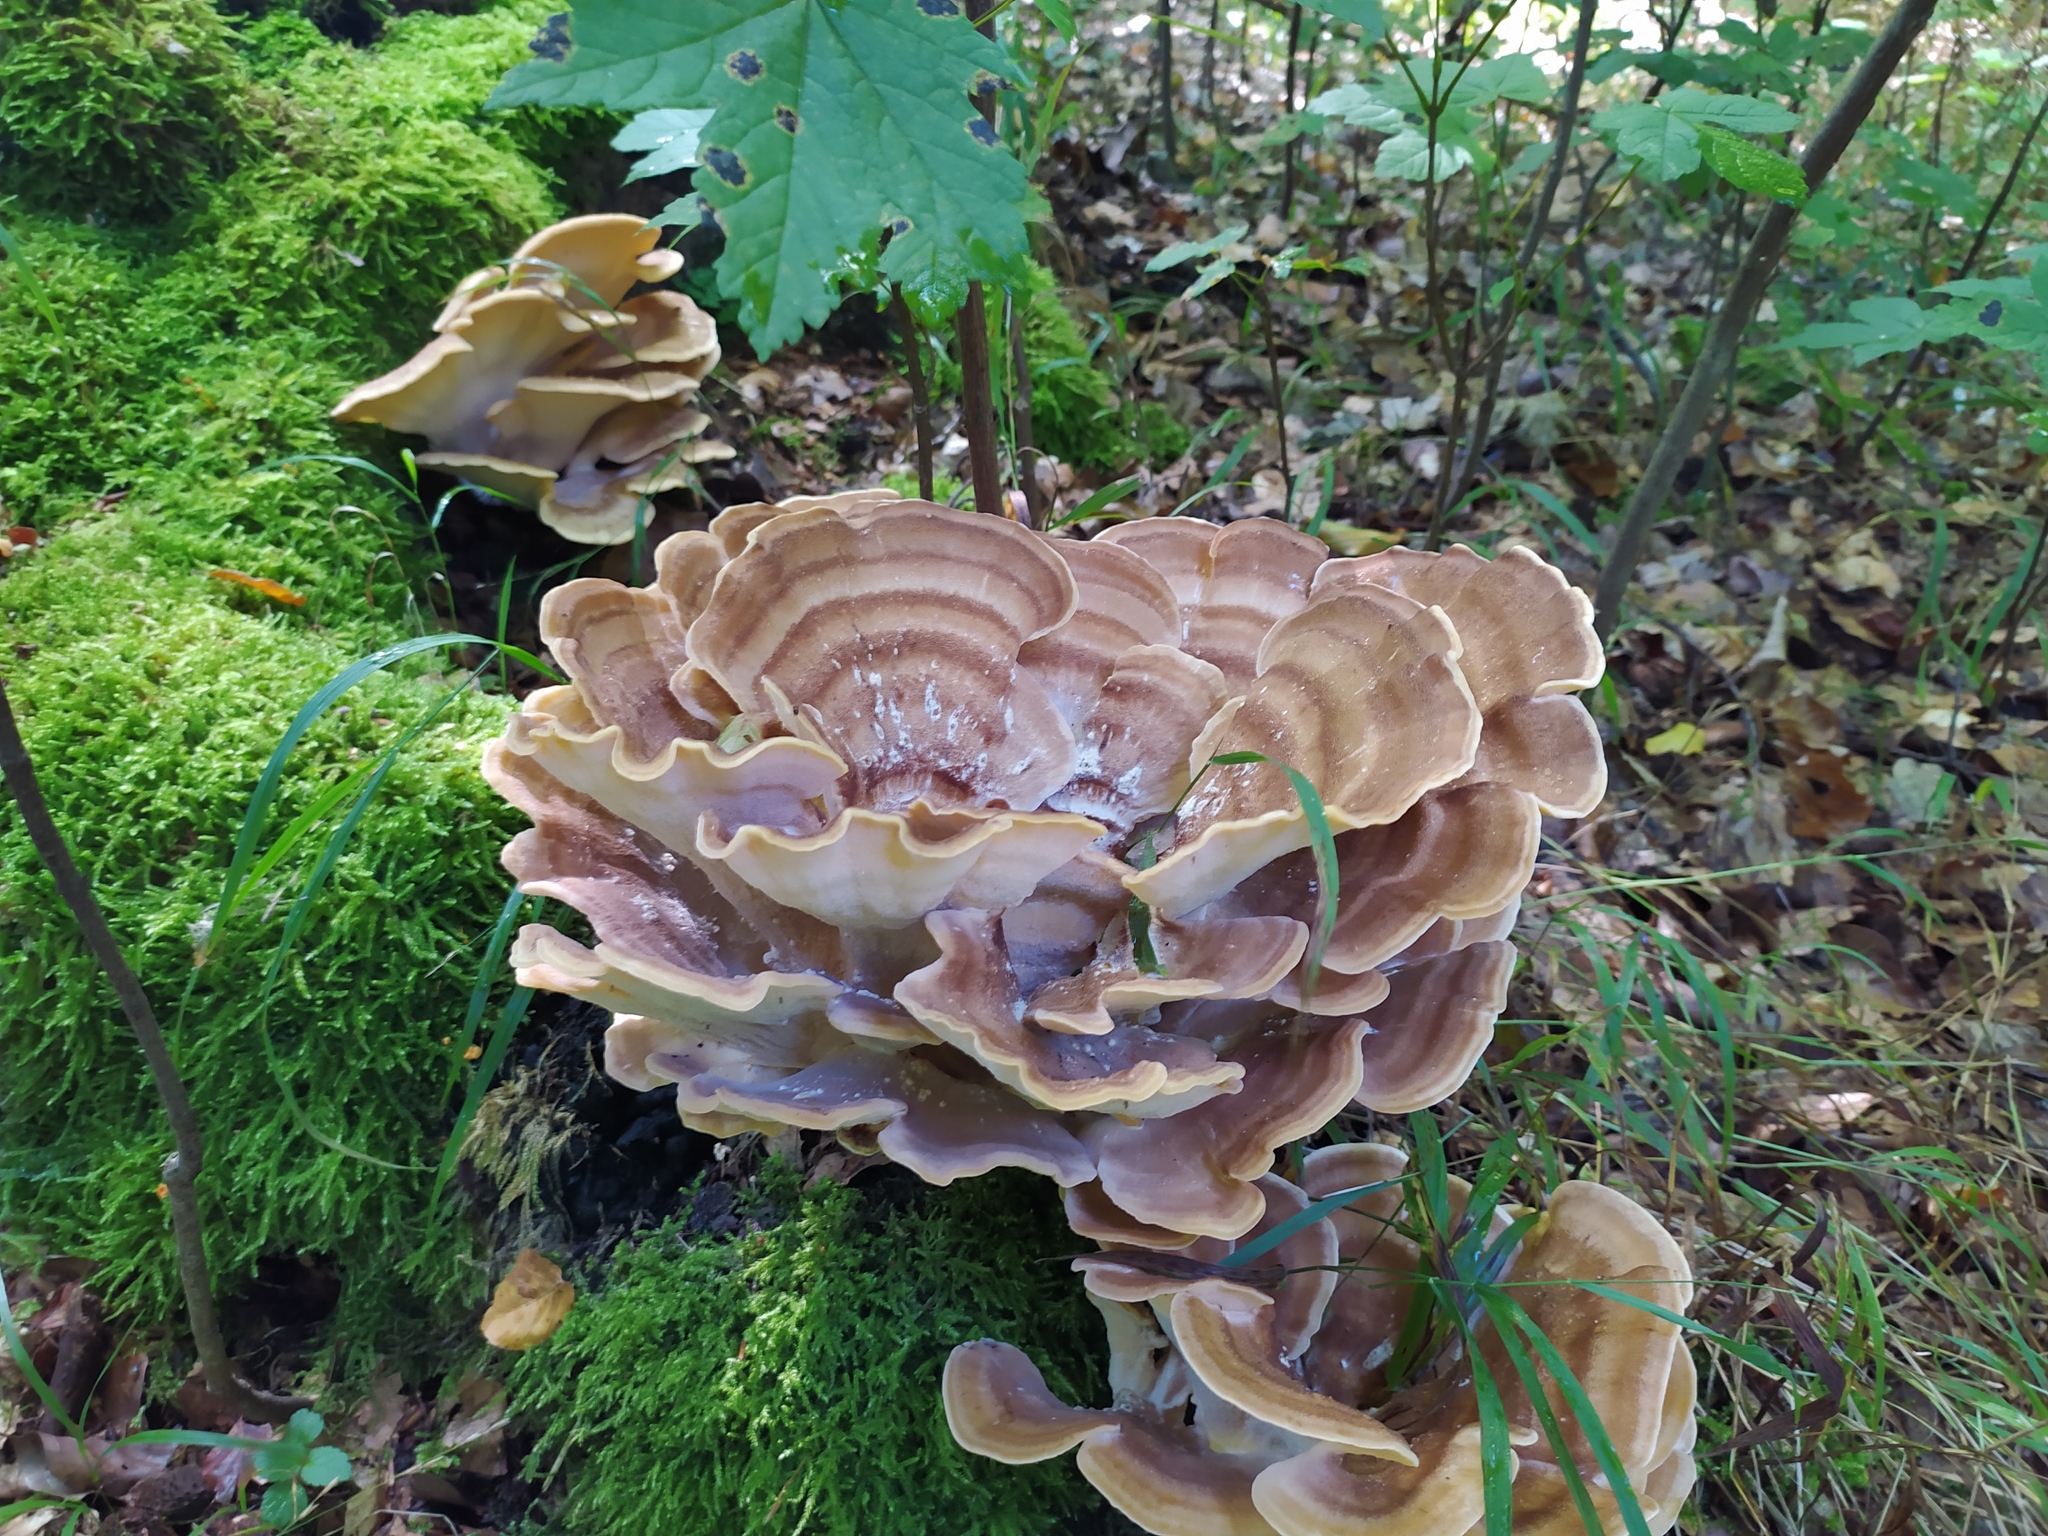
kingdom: Fungi
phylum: Basidiomycota
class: Agaricomycetes
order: Polyporales
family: Meripilaceae
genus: Meripilus
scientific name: Meripilus giganteus
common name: Giant polypore
